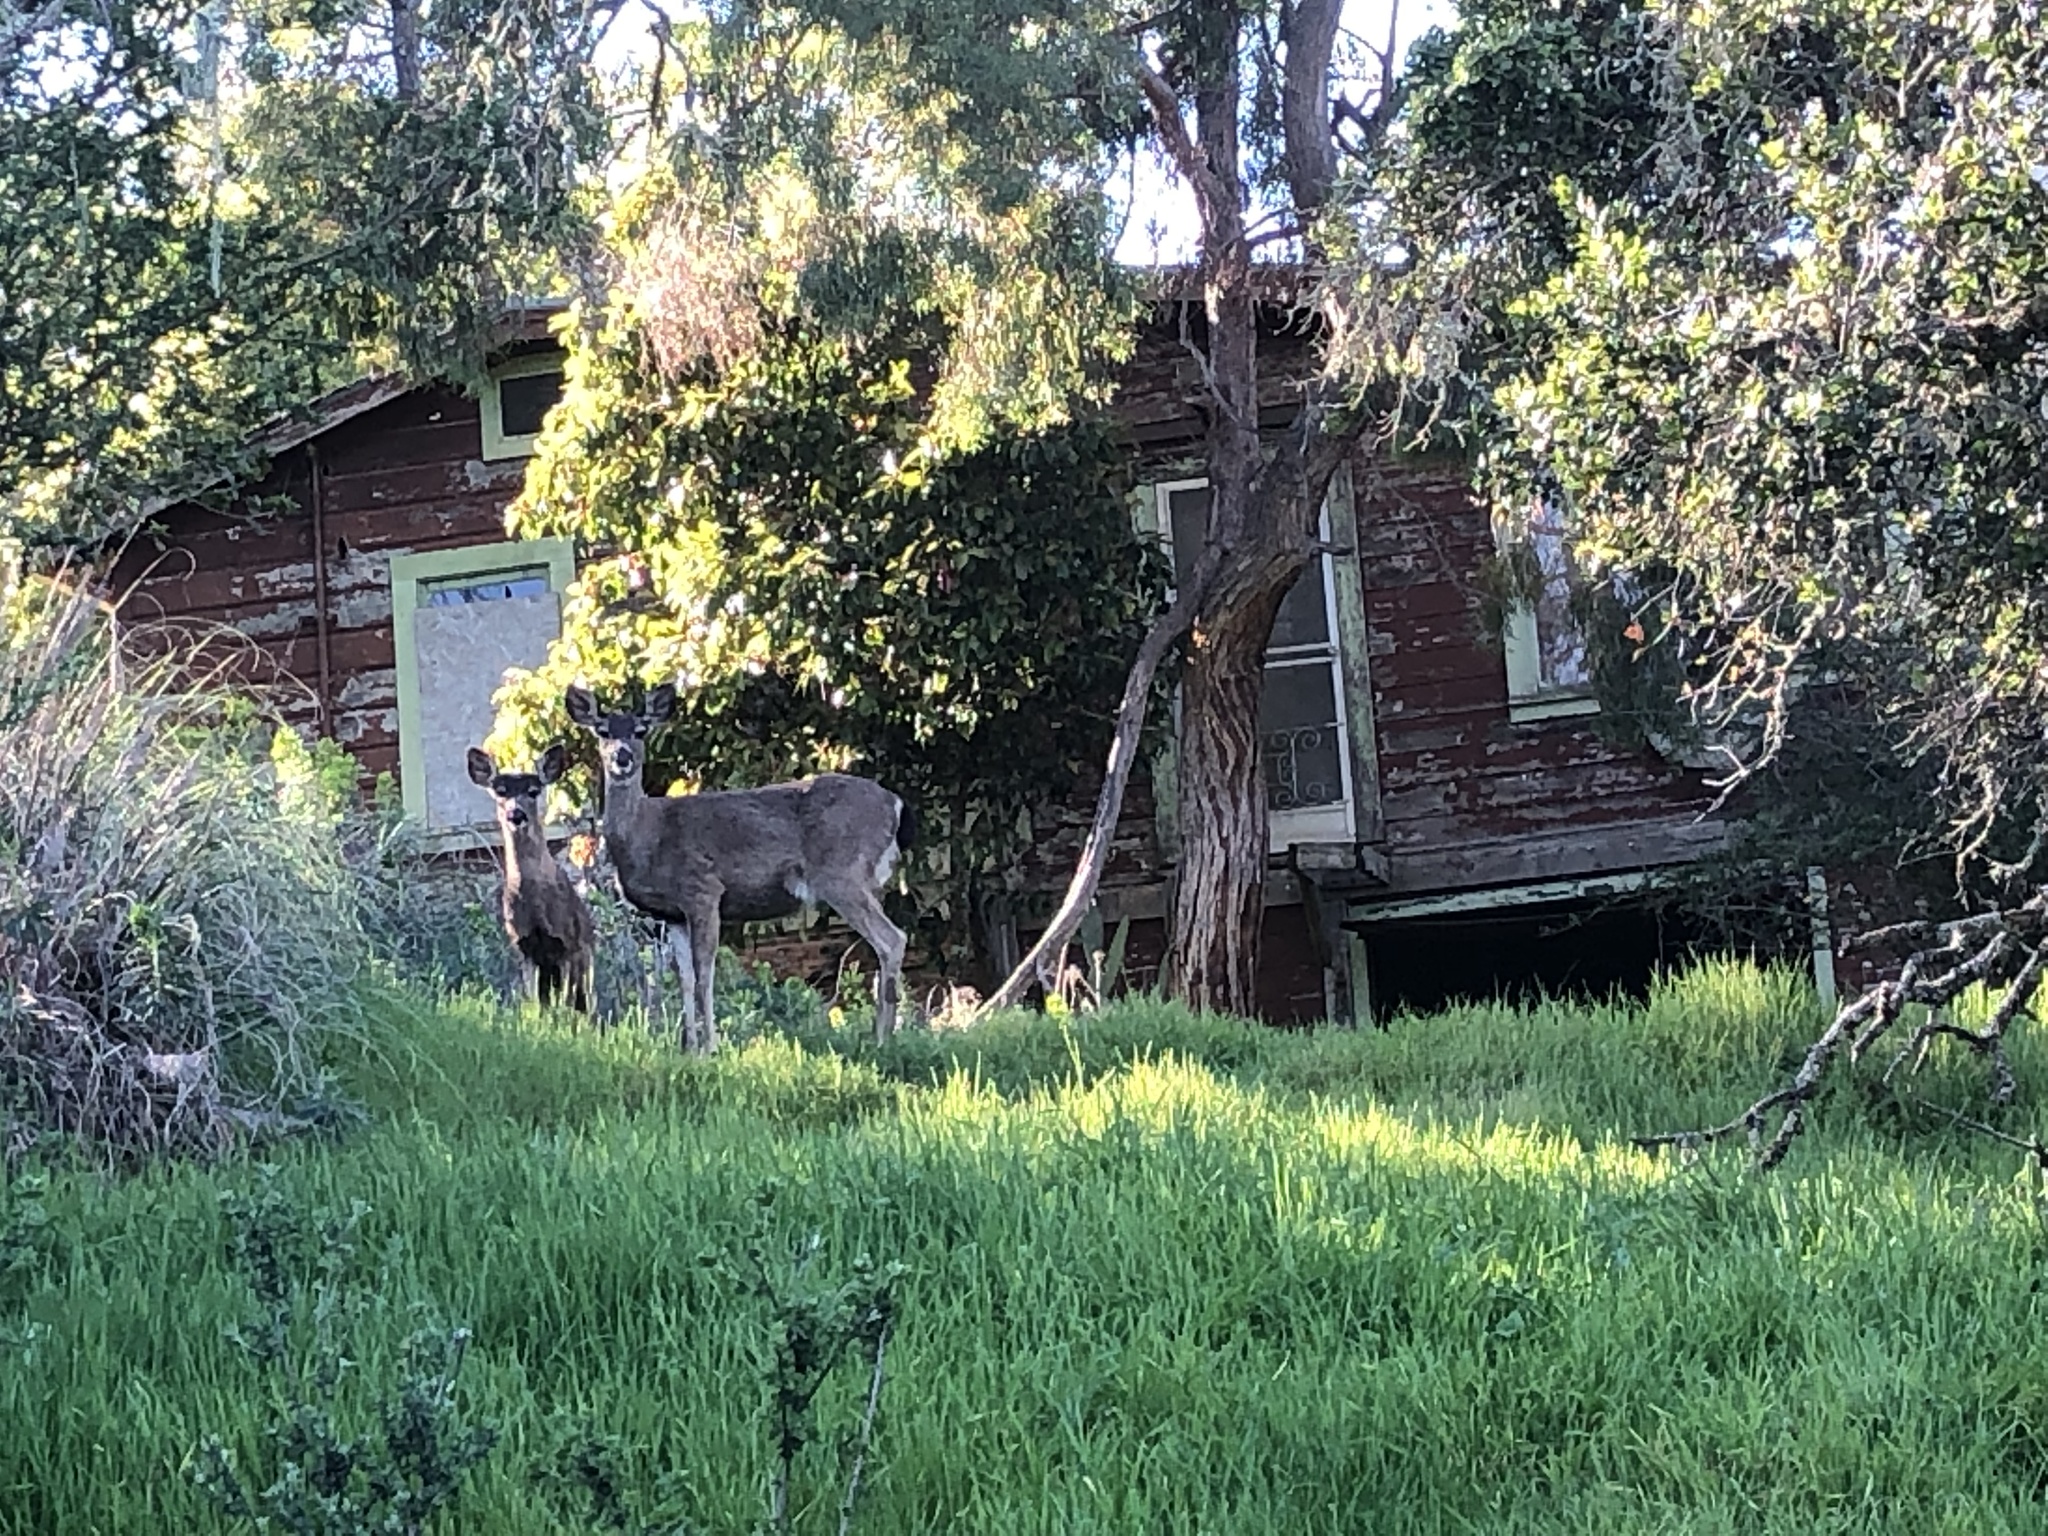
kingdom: Animalia
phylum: Chordata
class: Mammalia
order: Artiodactyla
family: Cervidae
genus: Odocoileus
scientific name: Odocoileus hemionus
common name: Mule deer
